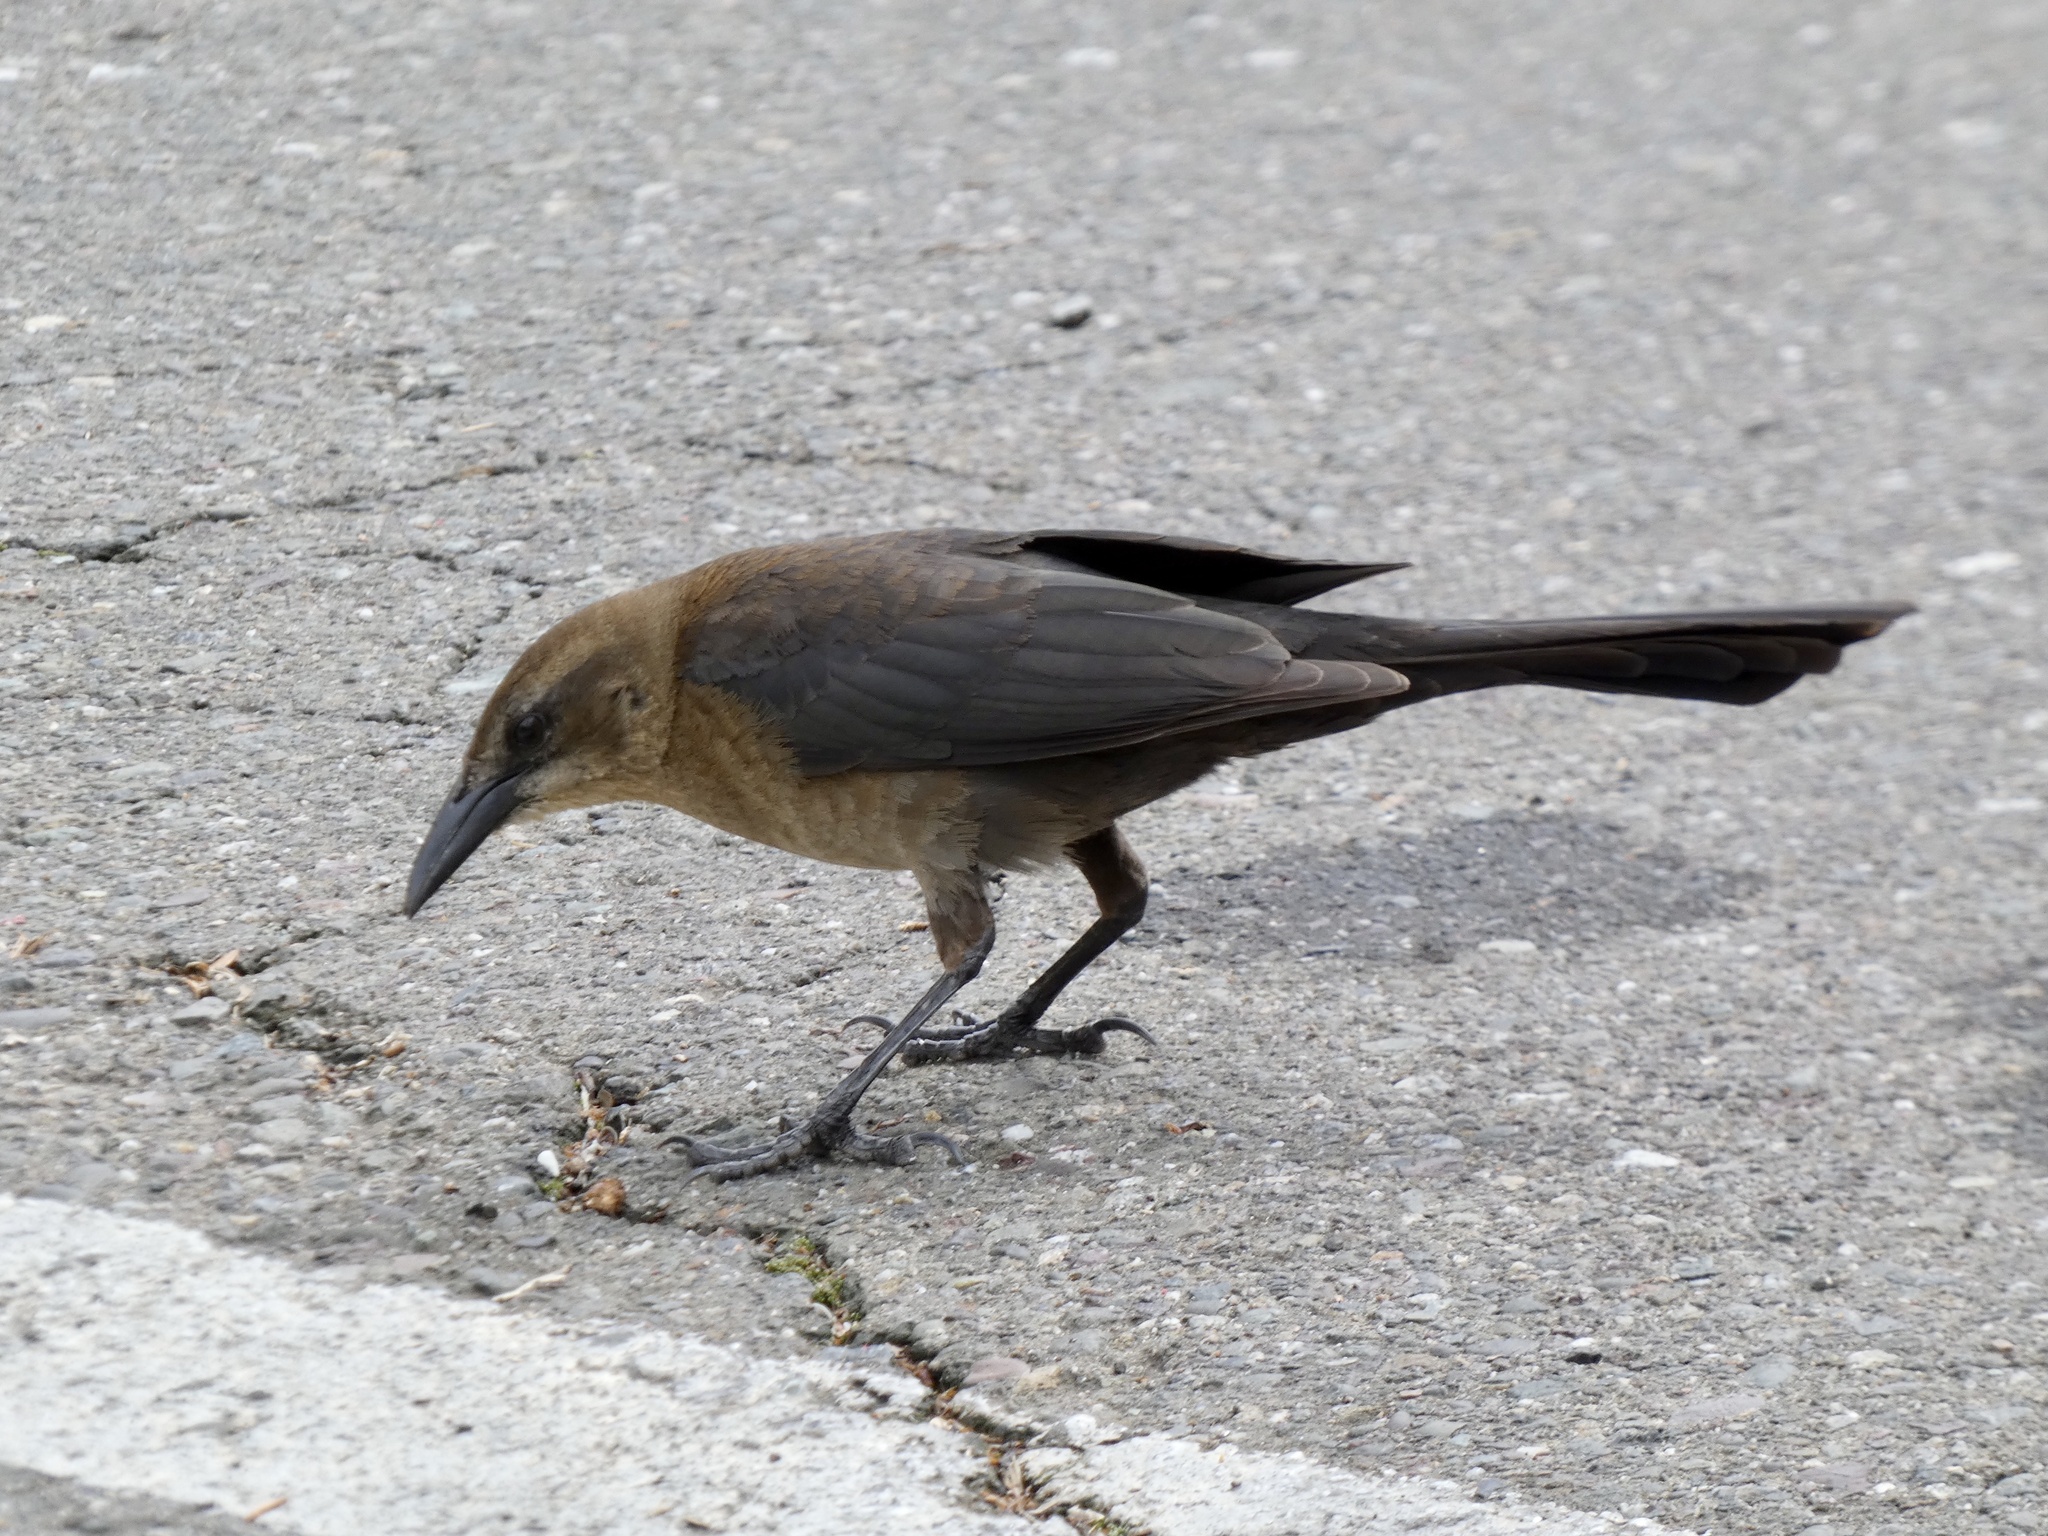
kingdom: Animalia
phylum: Chordata
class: Aves
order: Passeriformes
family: Icteridae
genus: Quiscalus
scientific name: Quiscalus mexicanus
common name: Great-tailed grackle
